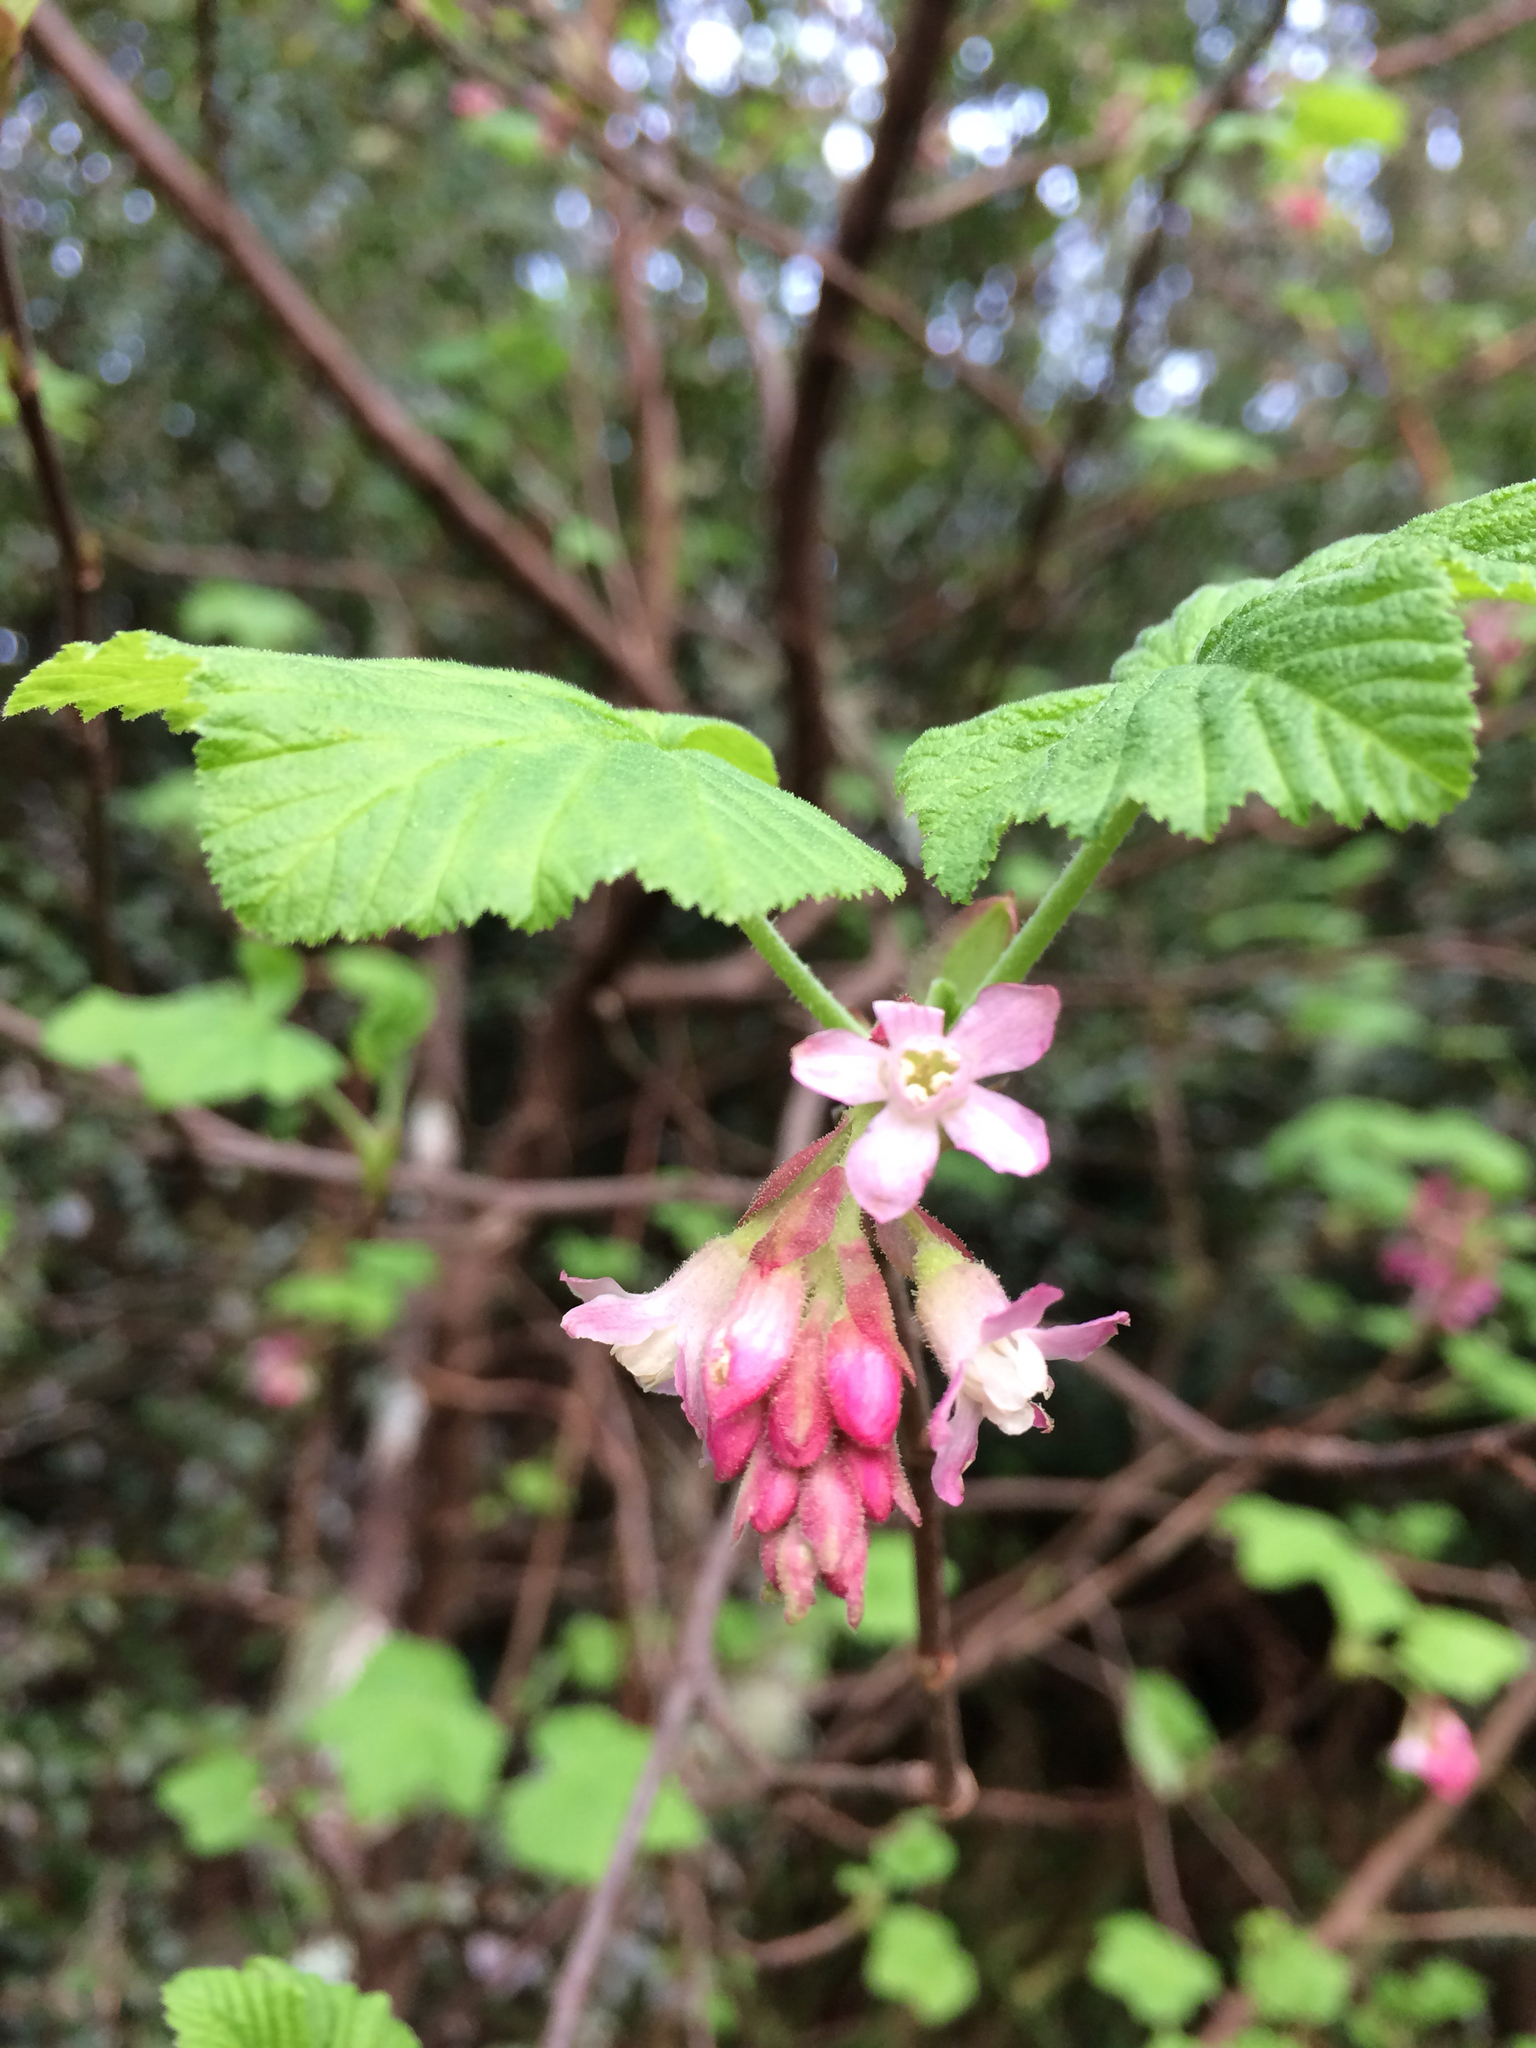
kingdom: Plantae
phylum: Tracheophyta
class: Magnoliopsida
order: Saxifragales
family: Grossulariaceae
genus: Ribes
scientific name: Ribes sanguineum
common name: Flowering currant
